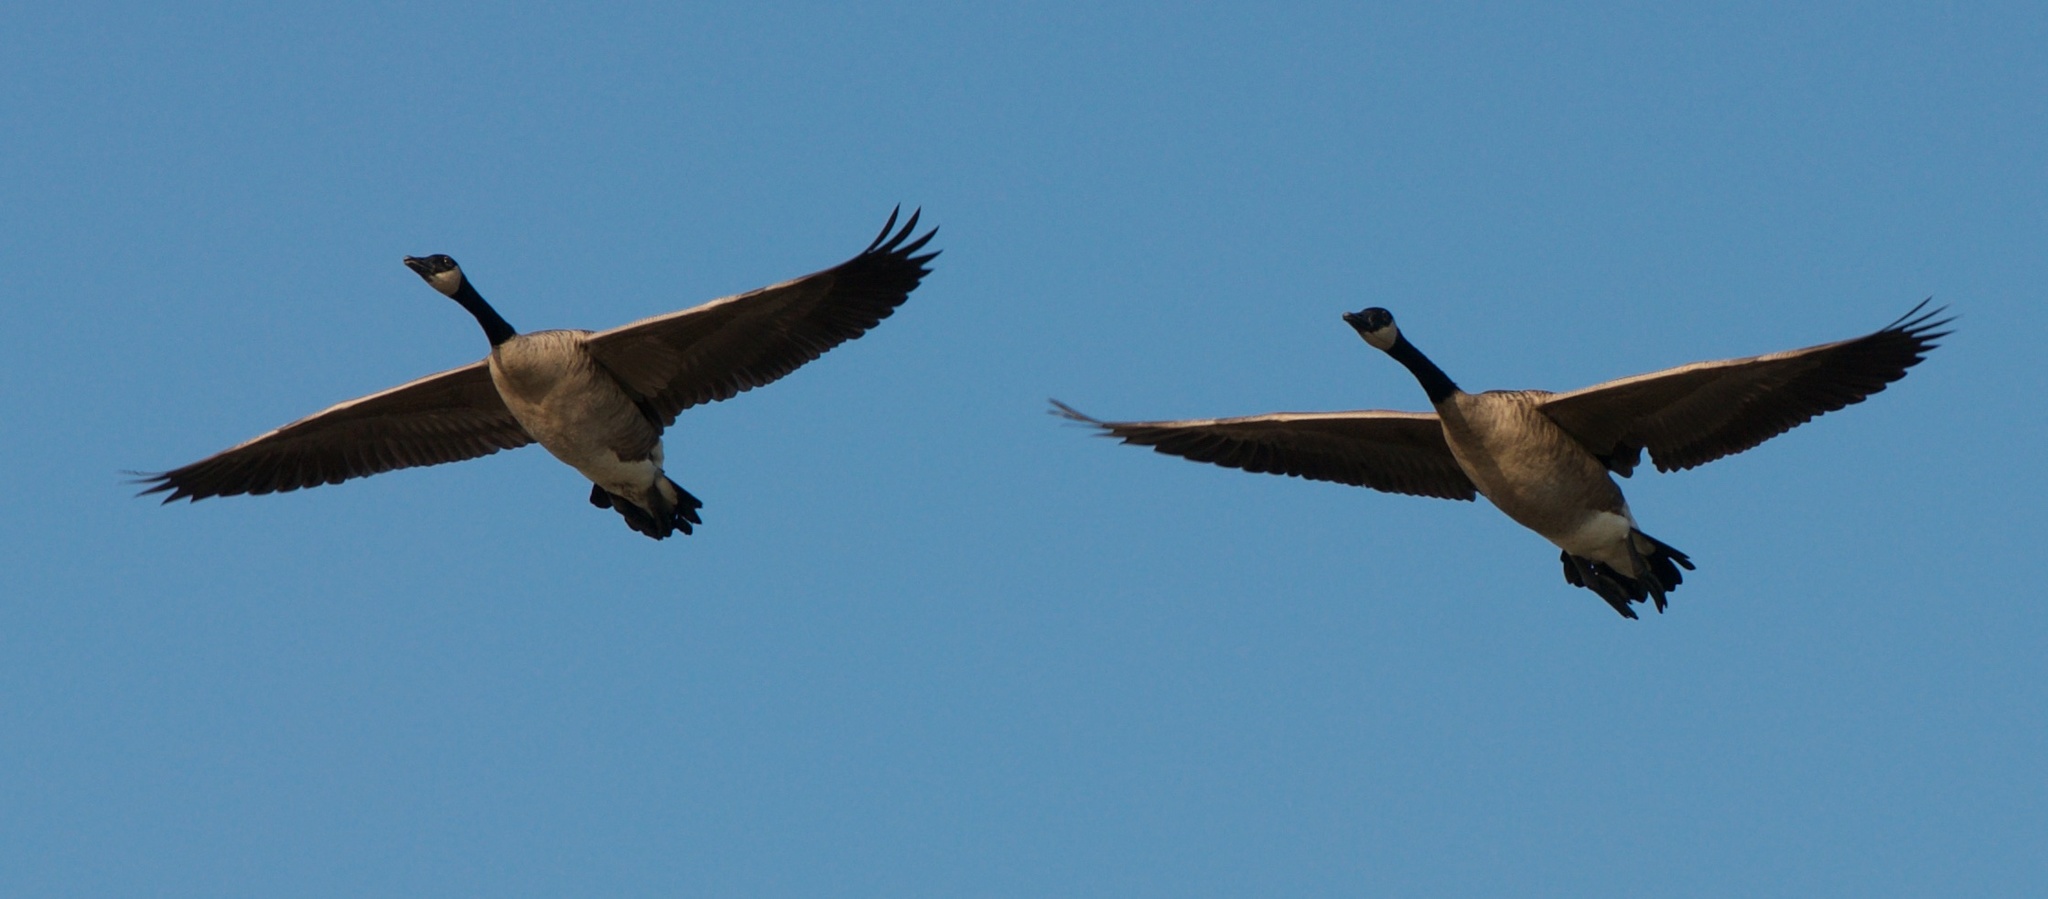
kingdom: Animalia
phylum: Chordata
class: Aves
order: Anseriformes
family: Anatidae
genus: Branta
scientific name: Branta canadensis
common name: Canada goose
